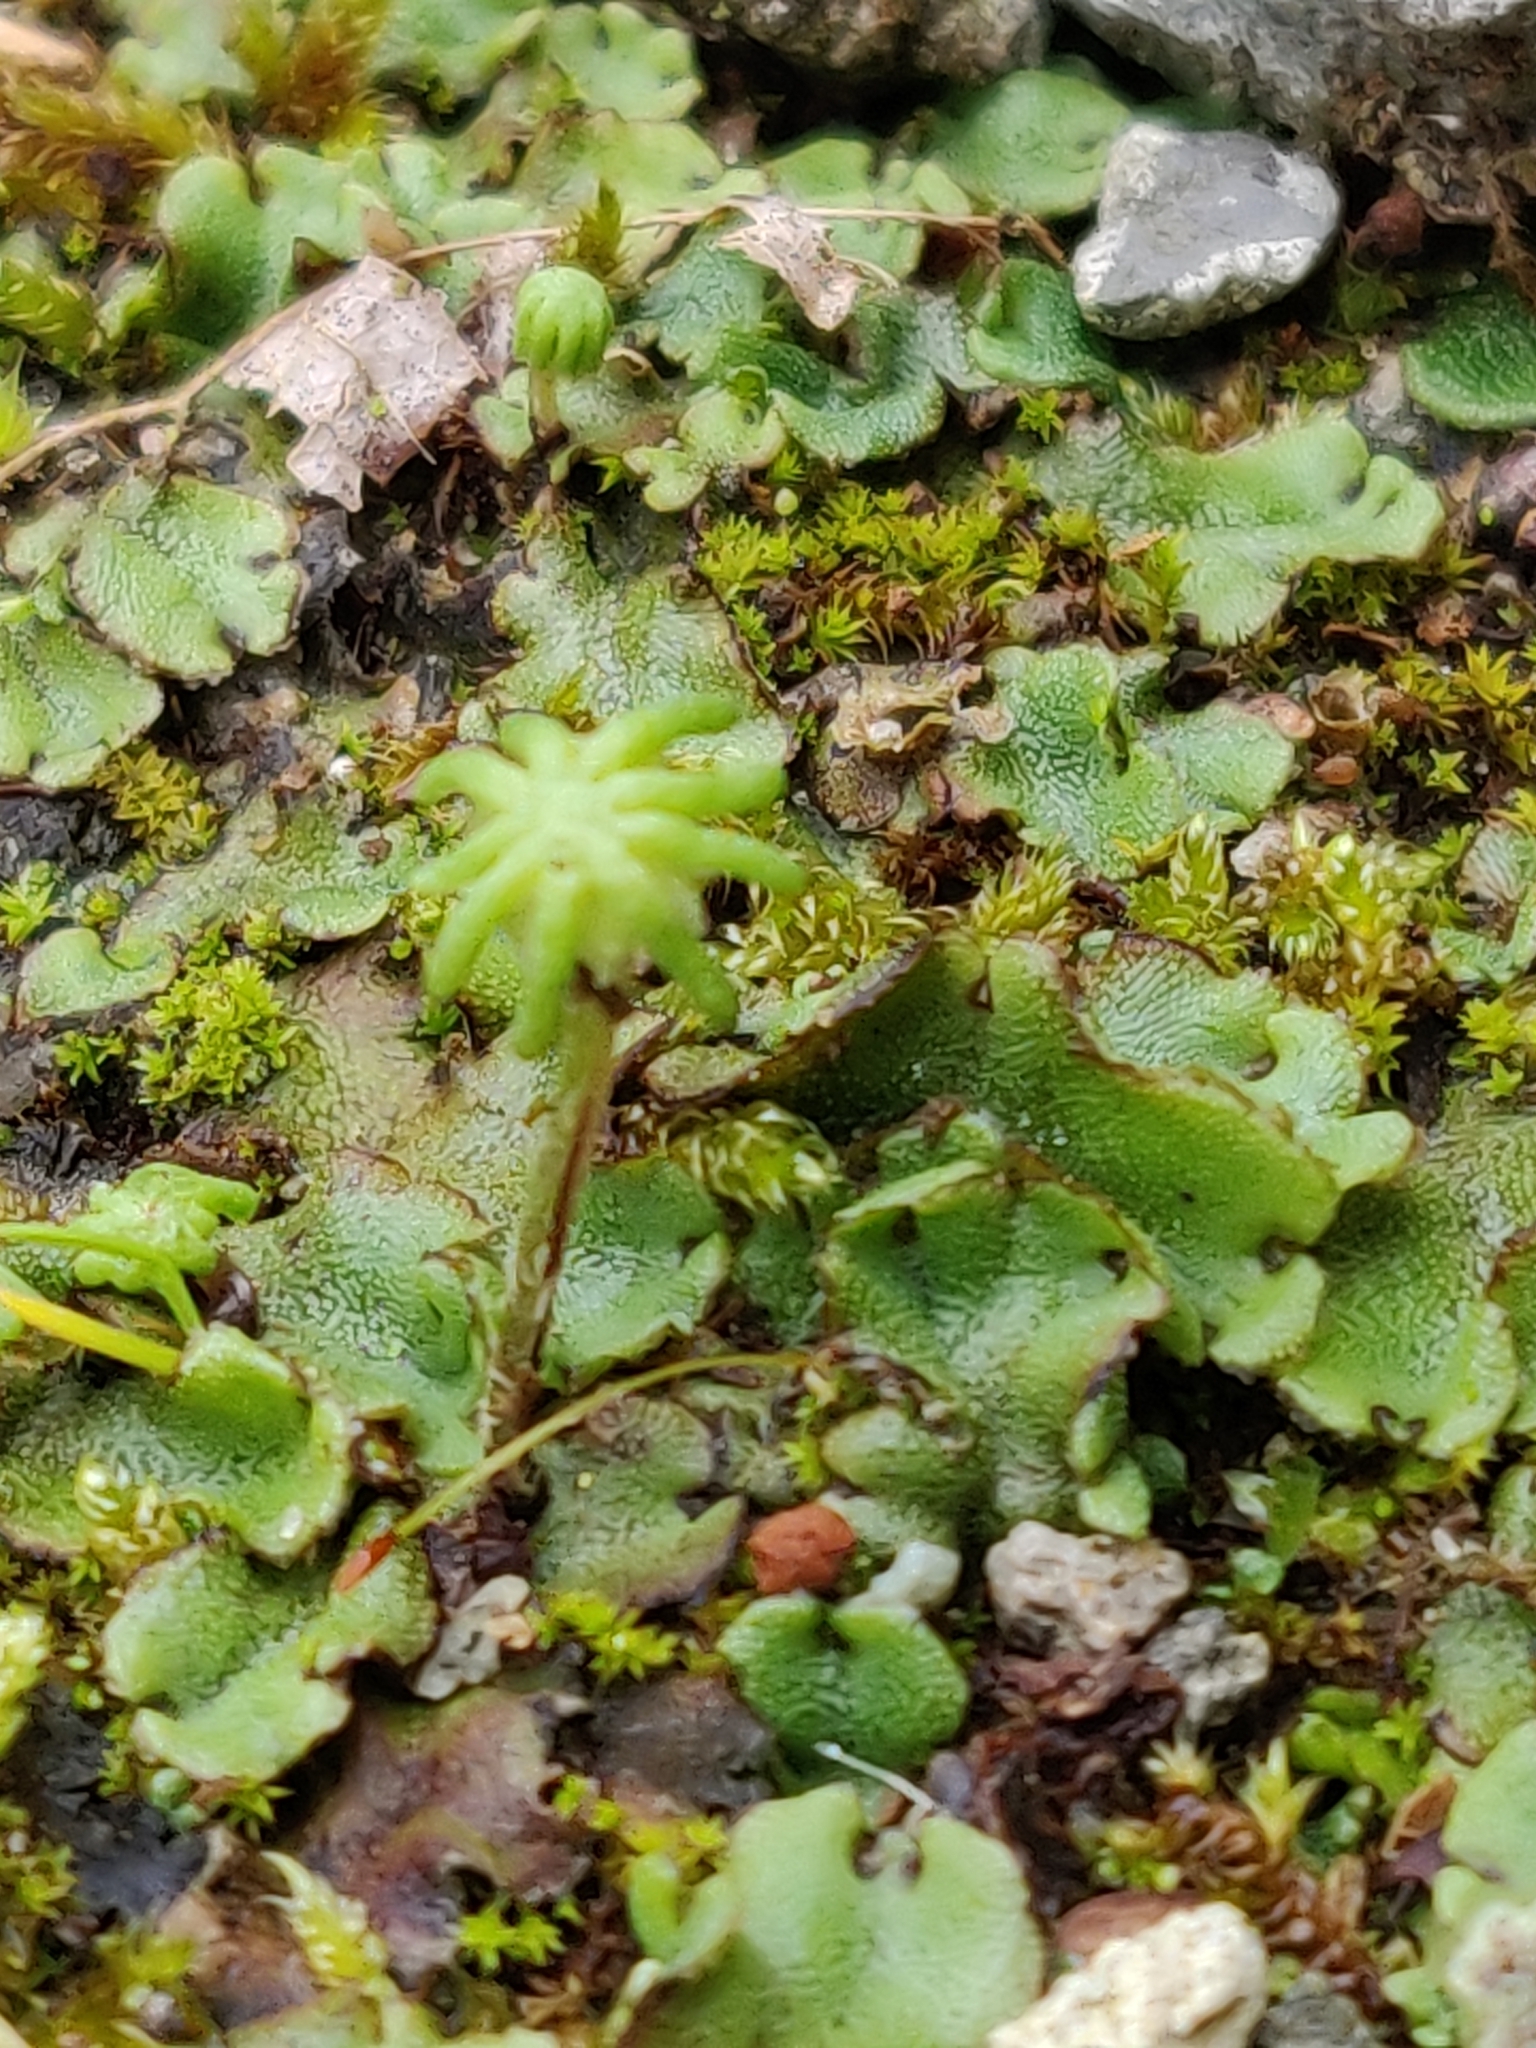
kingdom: Plantae
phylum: Marchantiophyta
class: Marchantiopsida
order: Marchantiales
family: Marchantiaceae
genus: Marchantia
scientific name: Marchantia polymorpha
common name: Common liverwort
